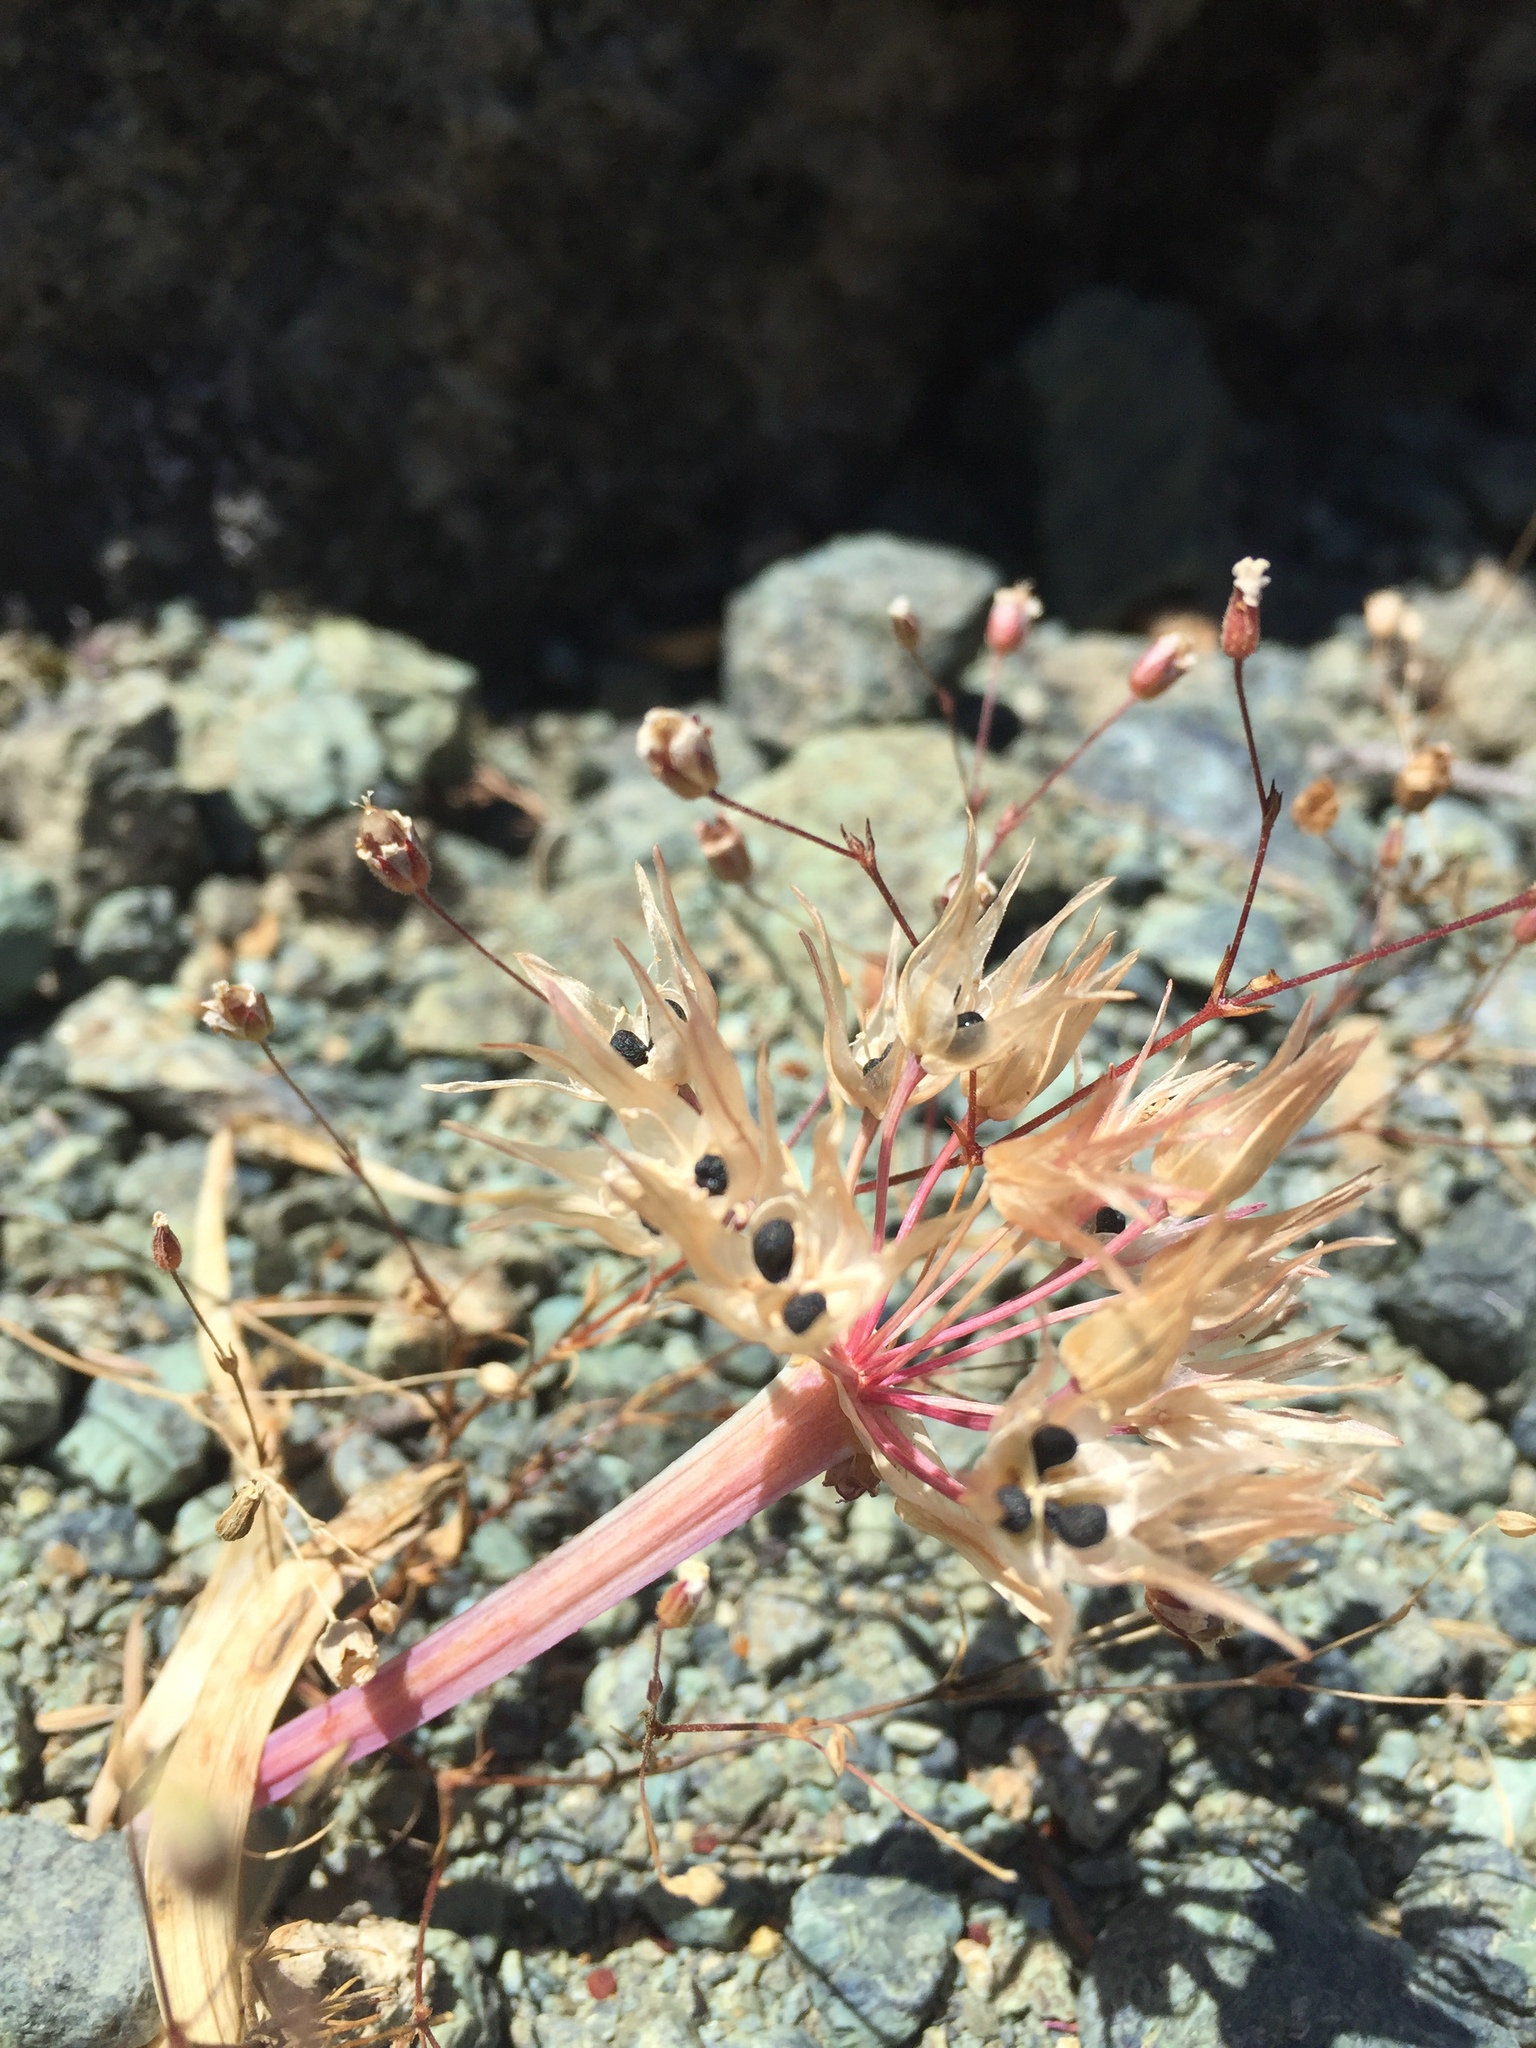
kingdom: Plantae
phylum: Tracheophyta
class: Liliopsida
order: Asparagales
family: Amaryllidaceae
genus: Allium
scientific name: Allium falcifolium
